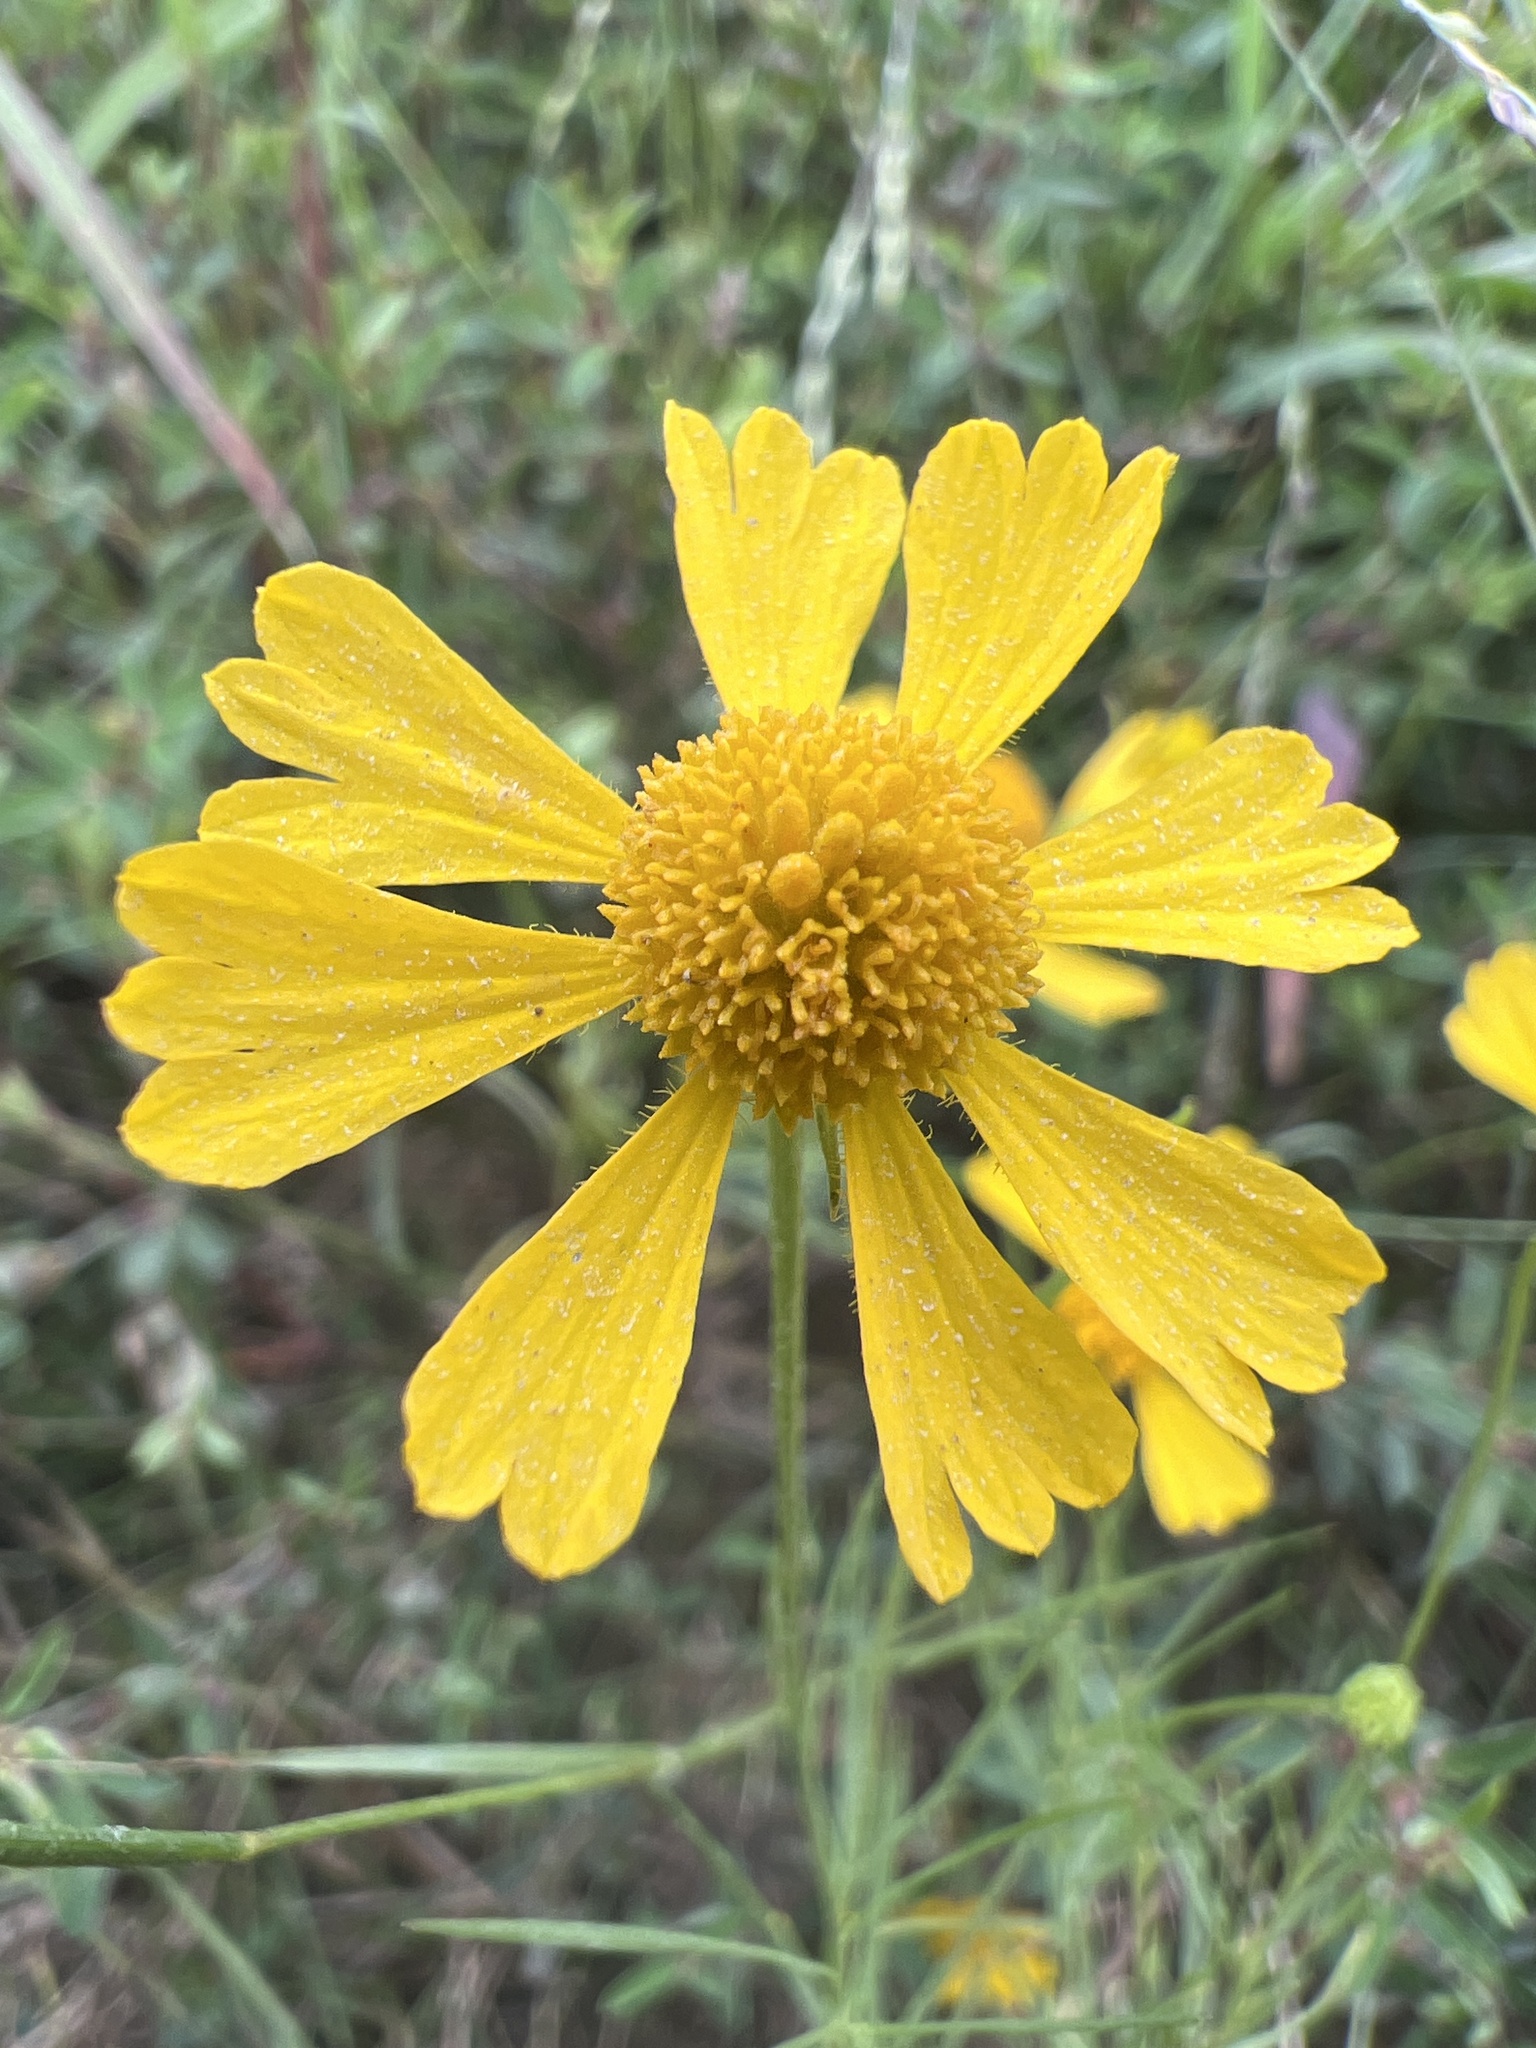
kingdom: Plantae
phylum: Tracheophyta
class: Magnoliopsida
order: Asterales
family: Asteraceae
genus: Helenium
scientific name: Helenium amarum
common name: Bitter sneezeweed
